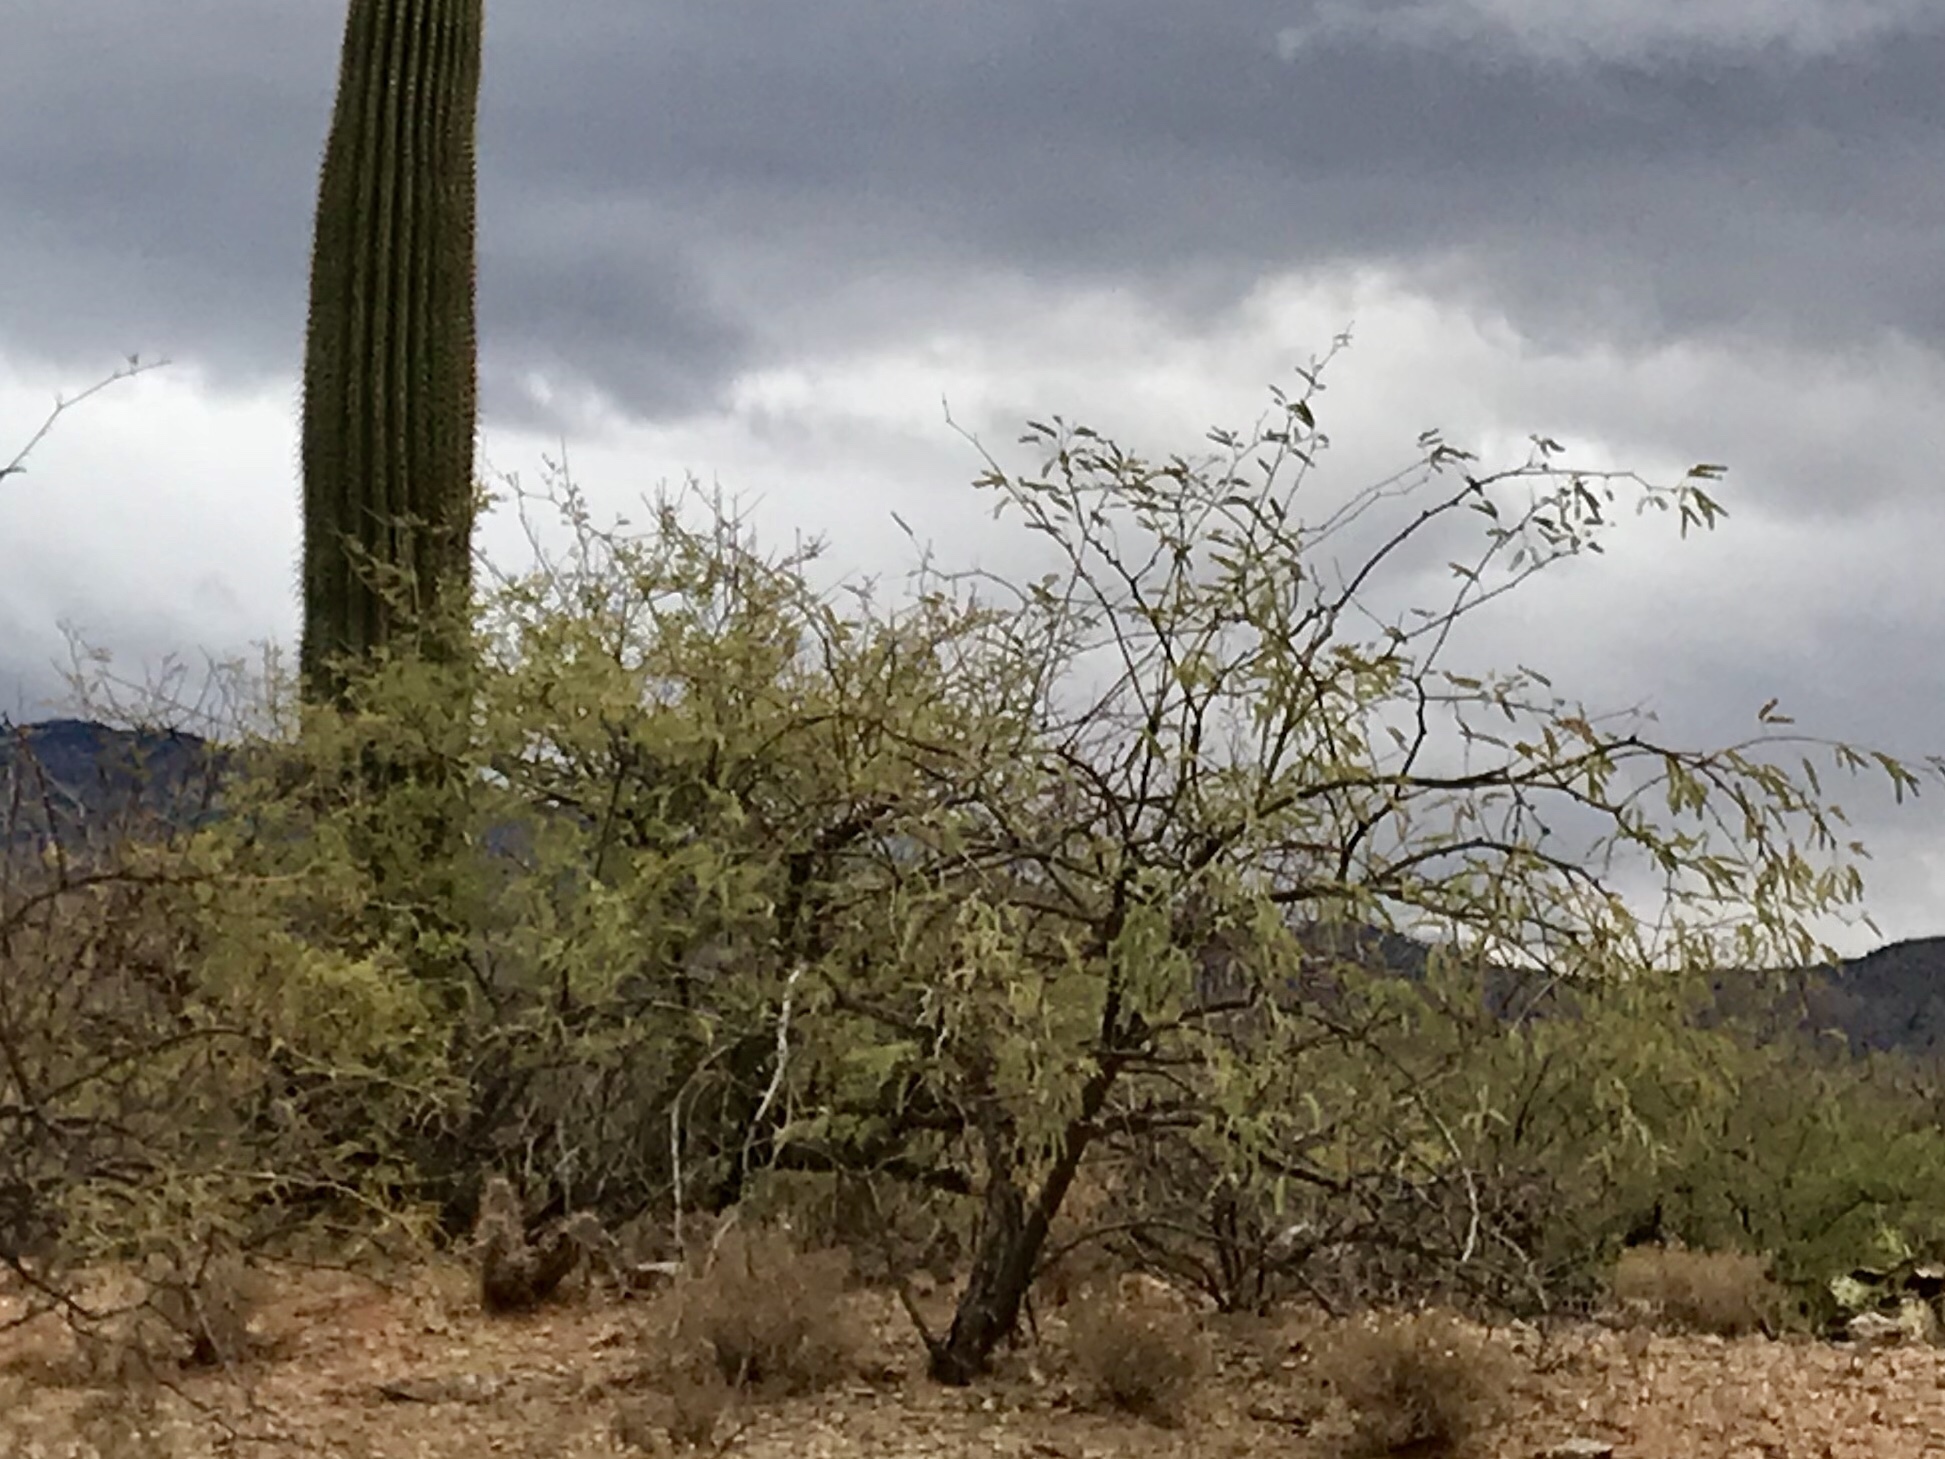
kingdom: Plantae
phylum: Tracheophyta
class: Magnoliopsida
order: Fabales
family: Fabaceae
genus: Prosopis
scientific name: Prosopis velutina
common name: Velvet mesquite
